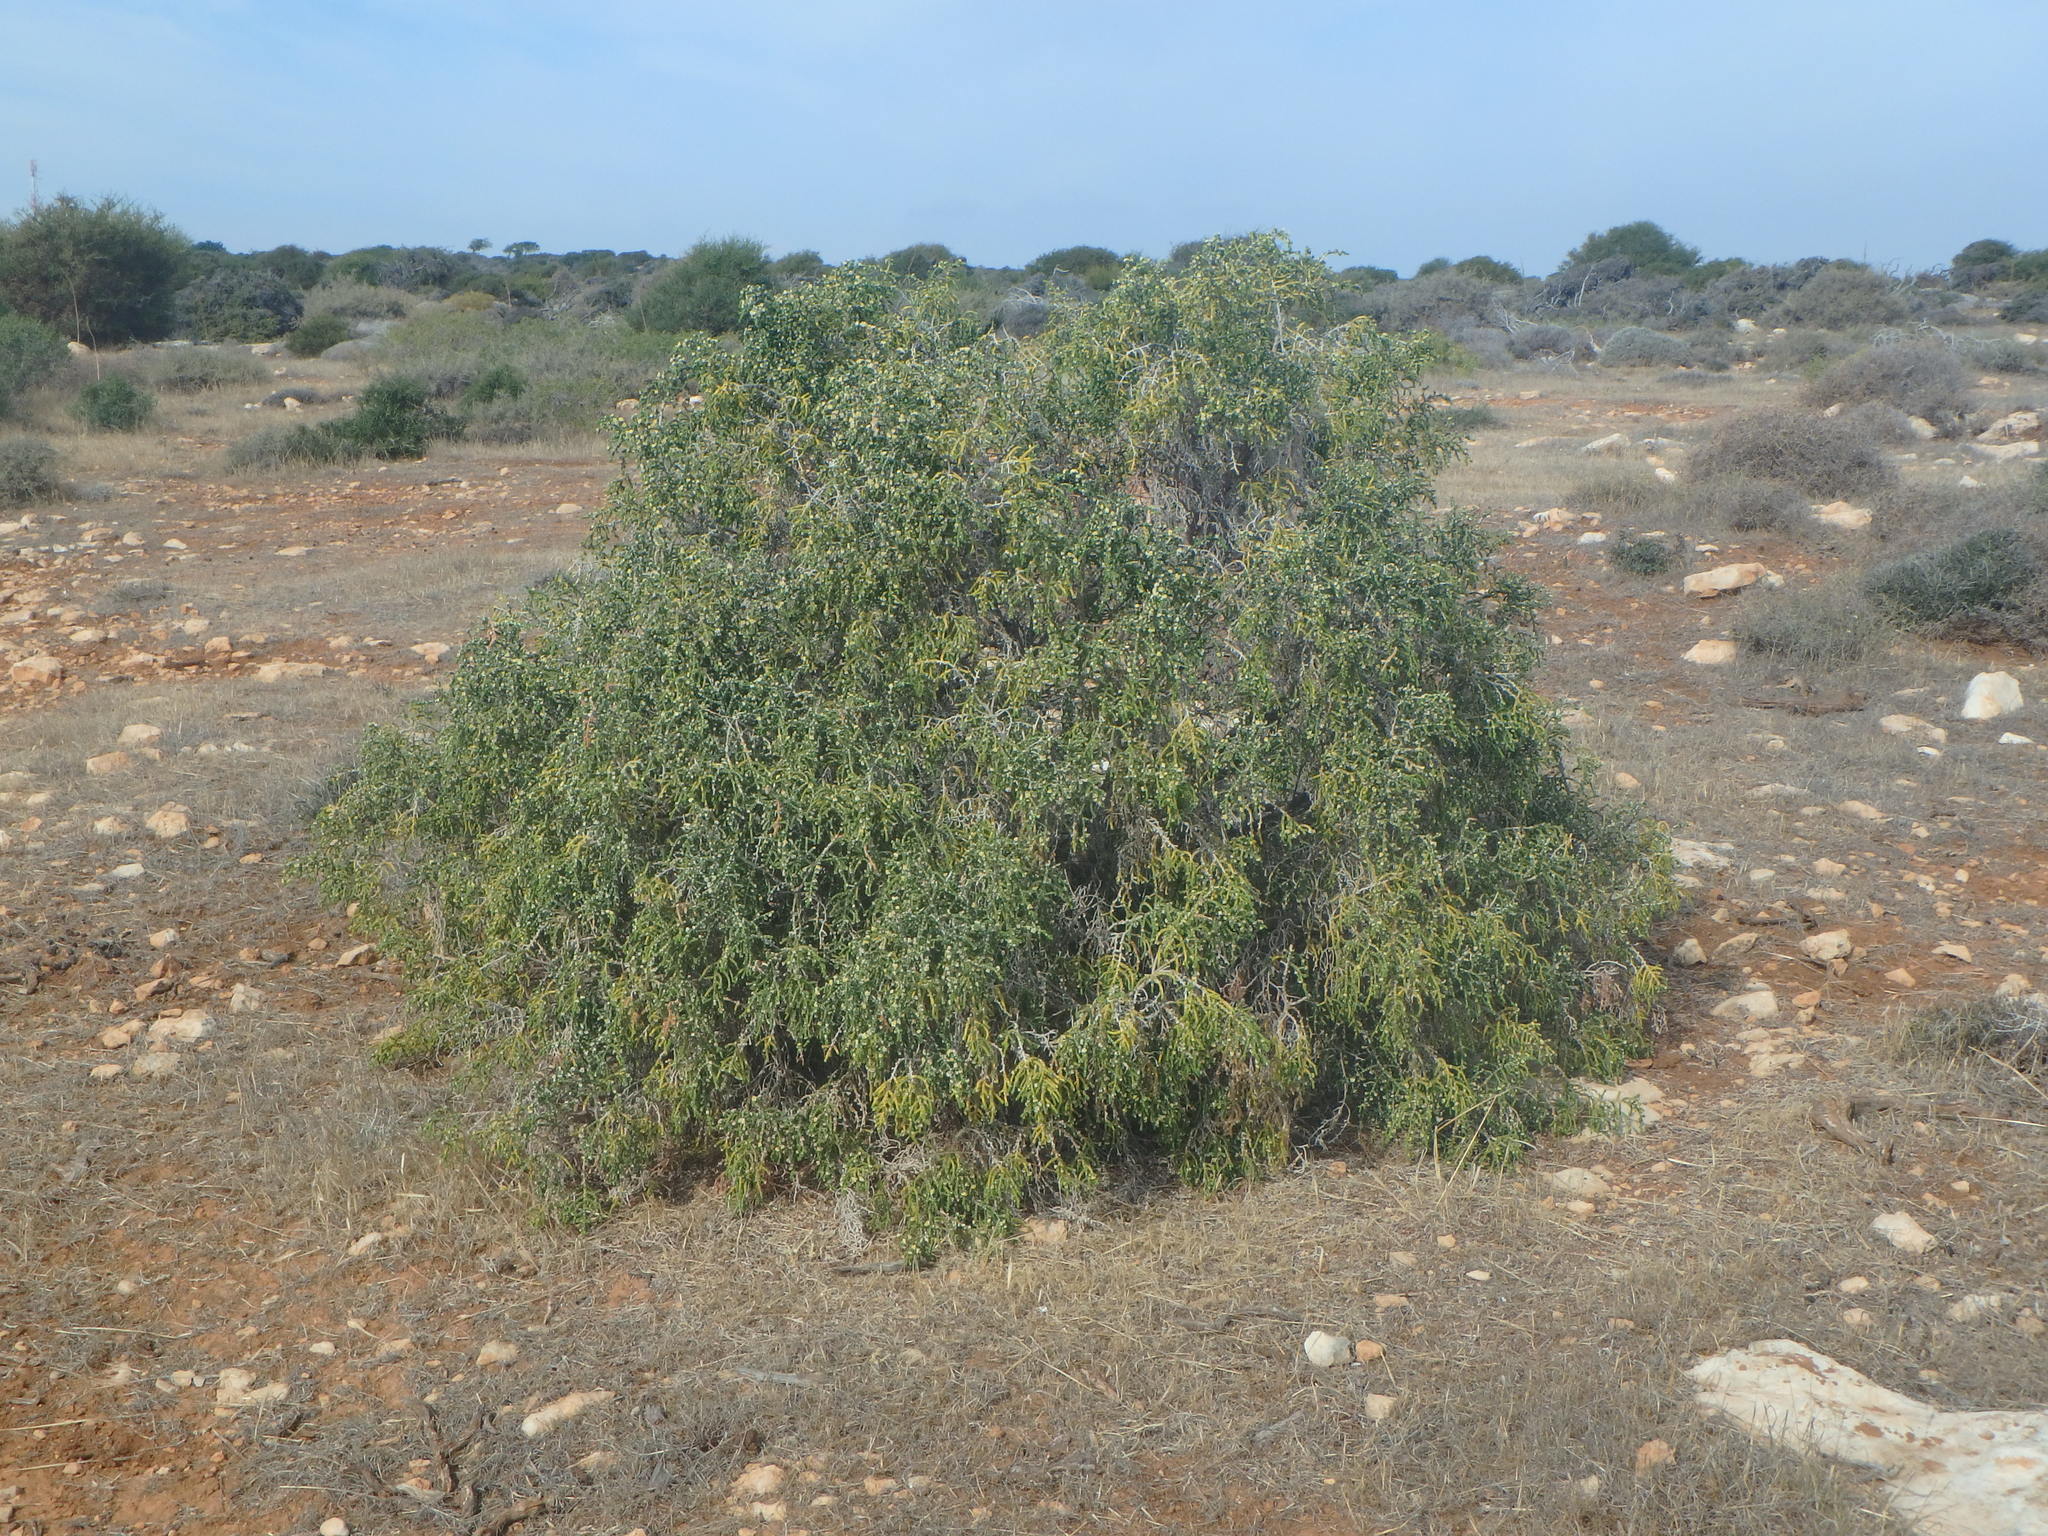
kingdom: Plantae
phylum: Tracheophyta
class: Magnoliopsida
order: Malvales
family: Thymelaeaceae
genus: Thymelaea
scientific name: Thymelaea hirsuta
